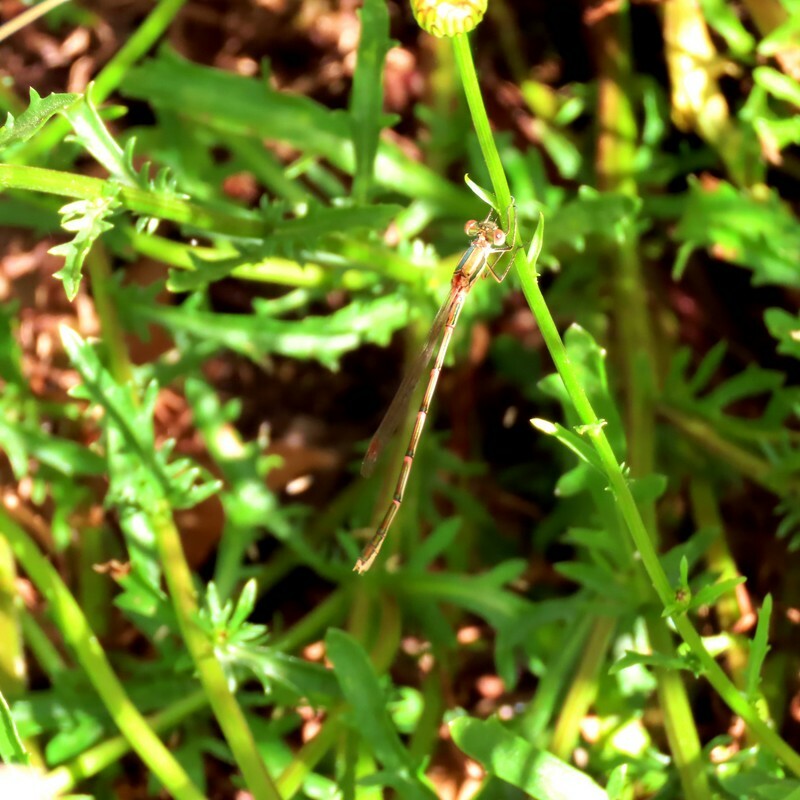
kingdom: Animalia
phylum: Arthropoda
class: Insecta
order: Odonata
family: Lestidae
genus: Austrolestes
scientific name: Austrolestes analis
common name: Slender ringtail
